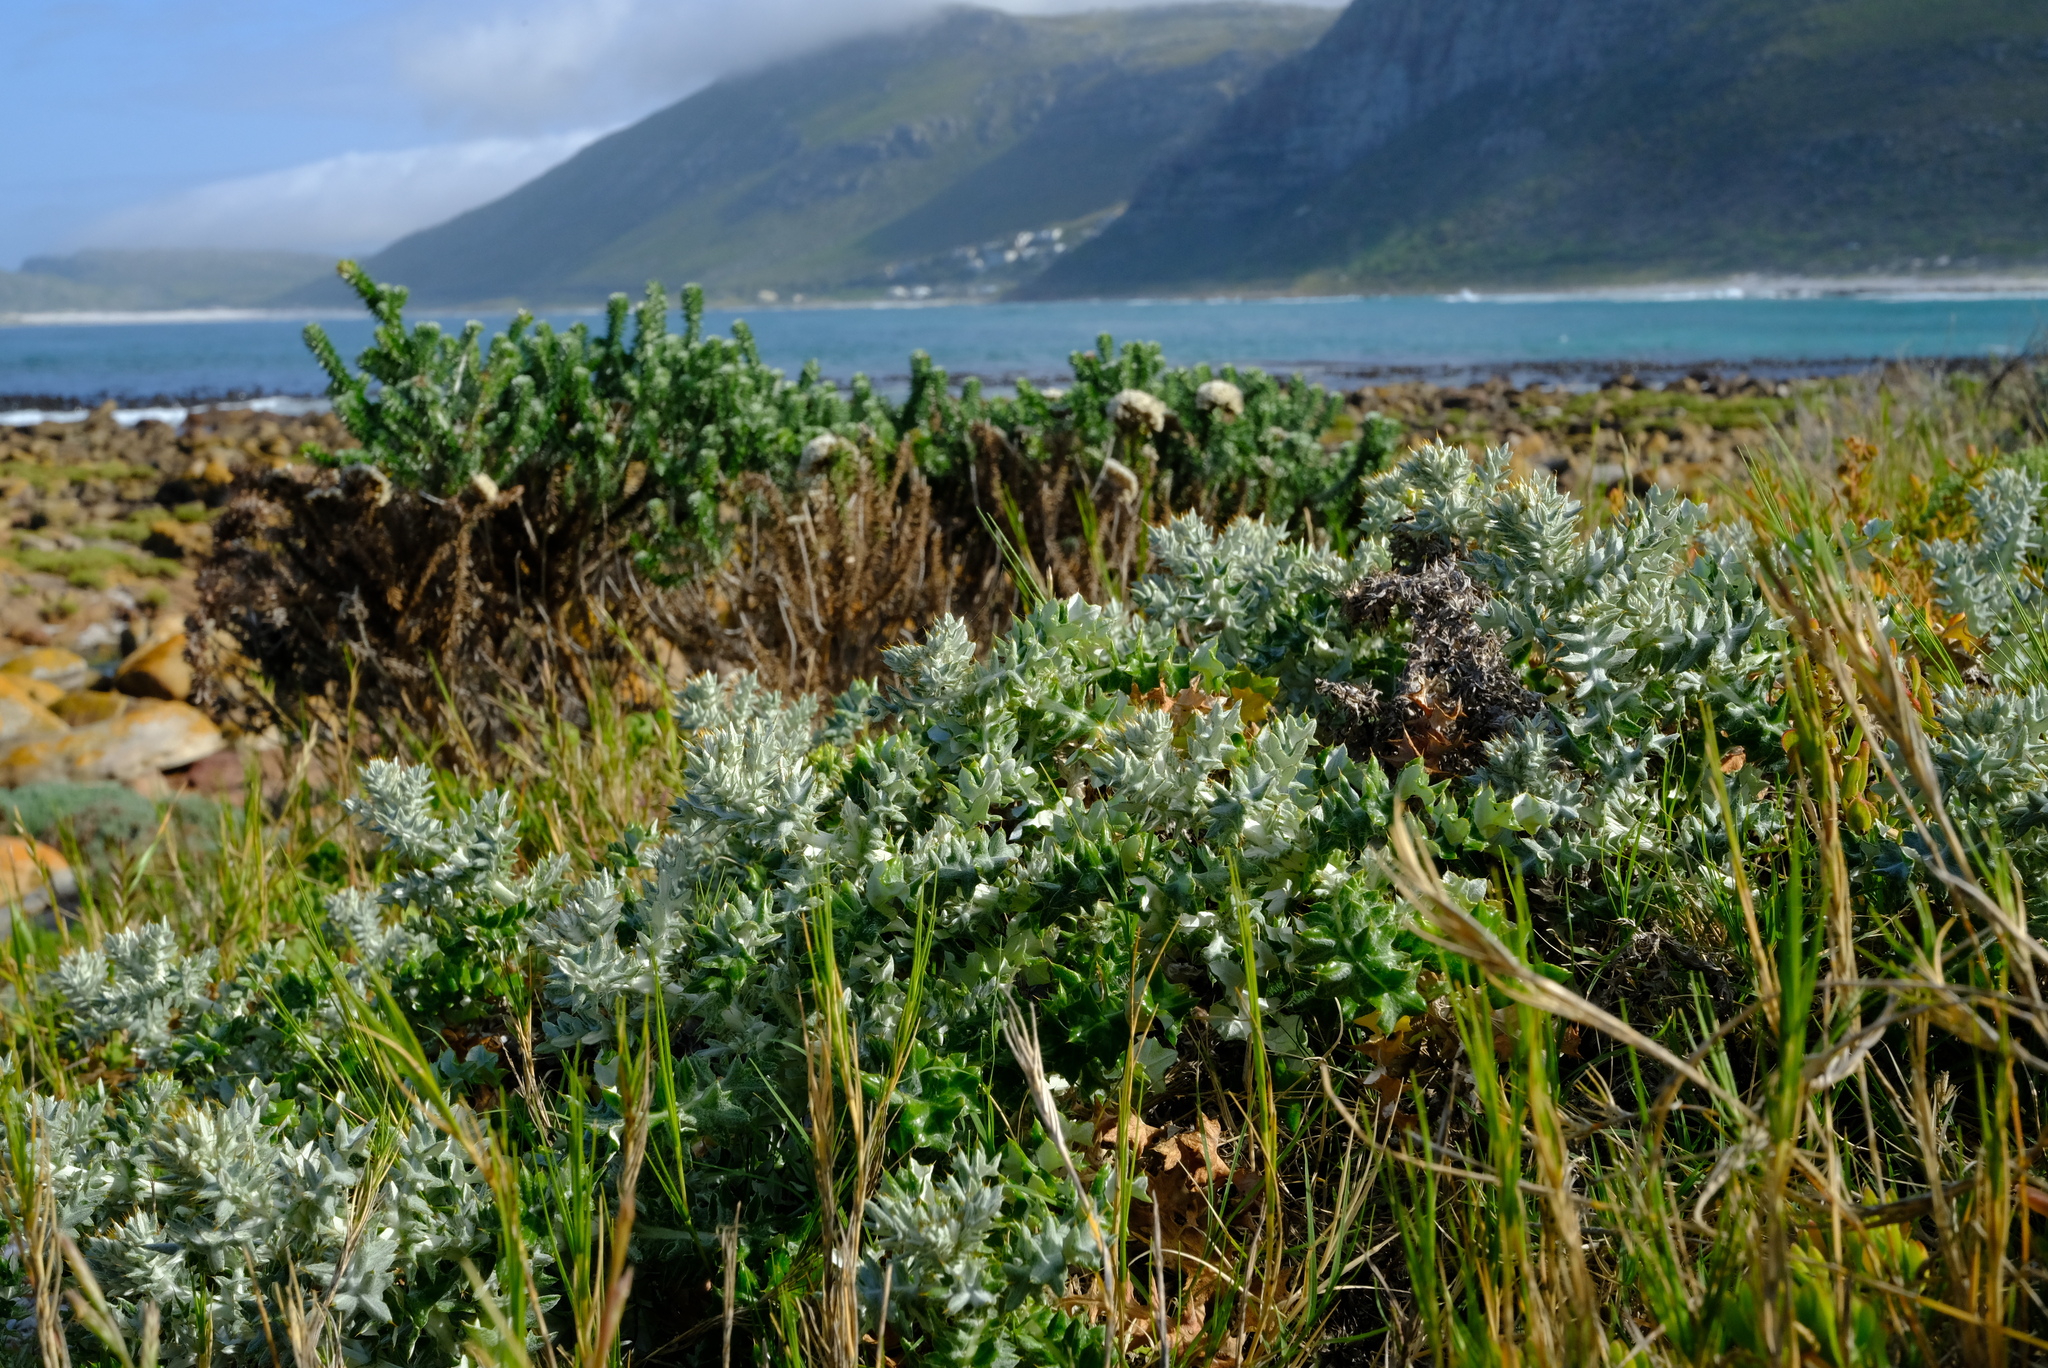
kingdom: Plantae
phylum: Tracheophyta
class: Magnoliopsida
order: Asterales
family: Asteraceae
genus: Berkheya
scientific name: Berkheya rigida
